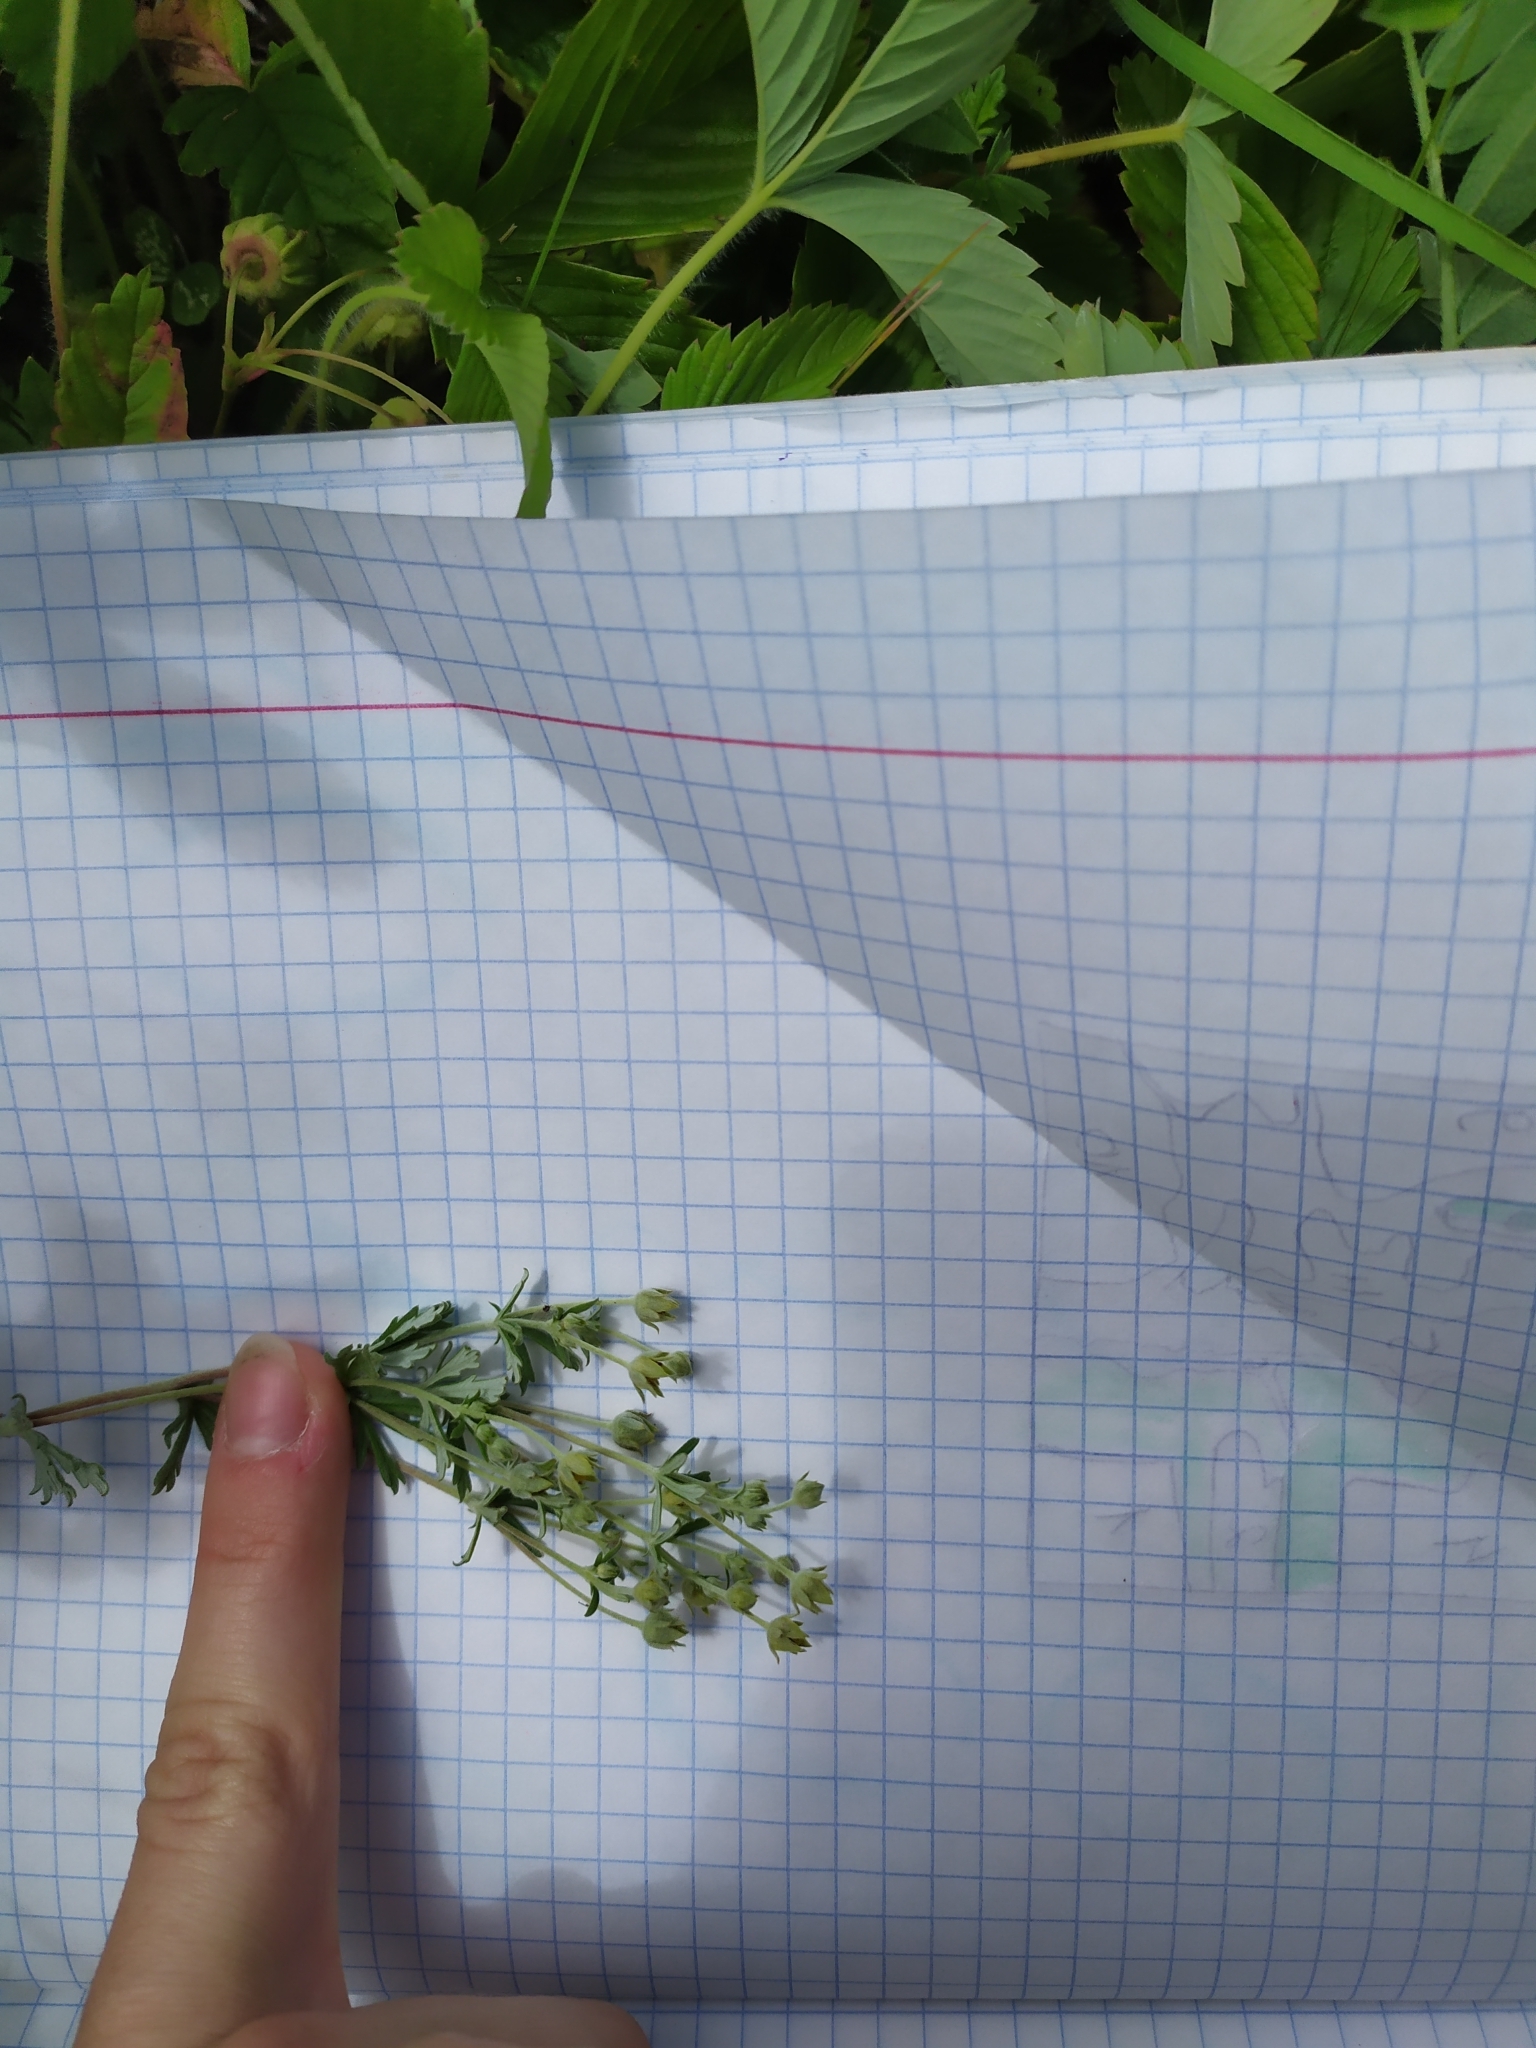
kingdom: Plantae
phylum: Tracheophyta
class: Magnoliopsida
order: Rosales
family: Rosaceae
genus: Potentilla
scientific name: Potentilla argentea
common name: Hoary cinquefoil
